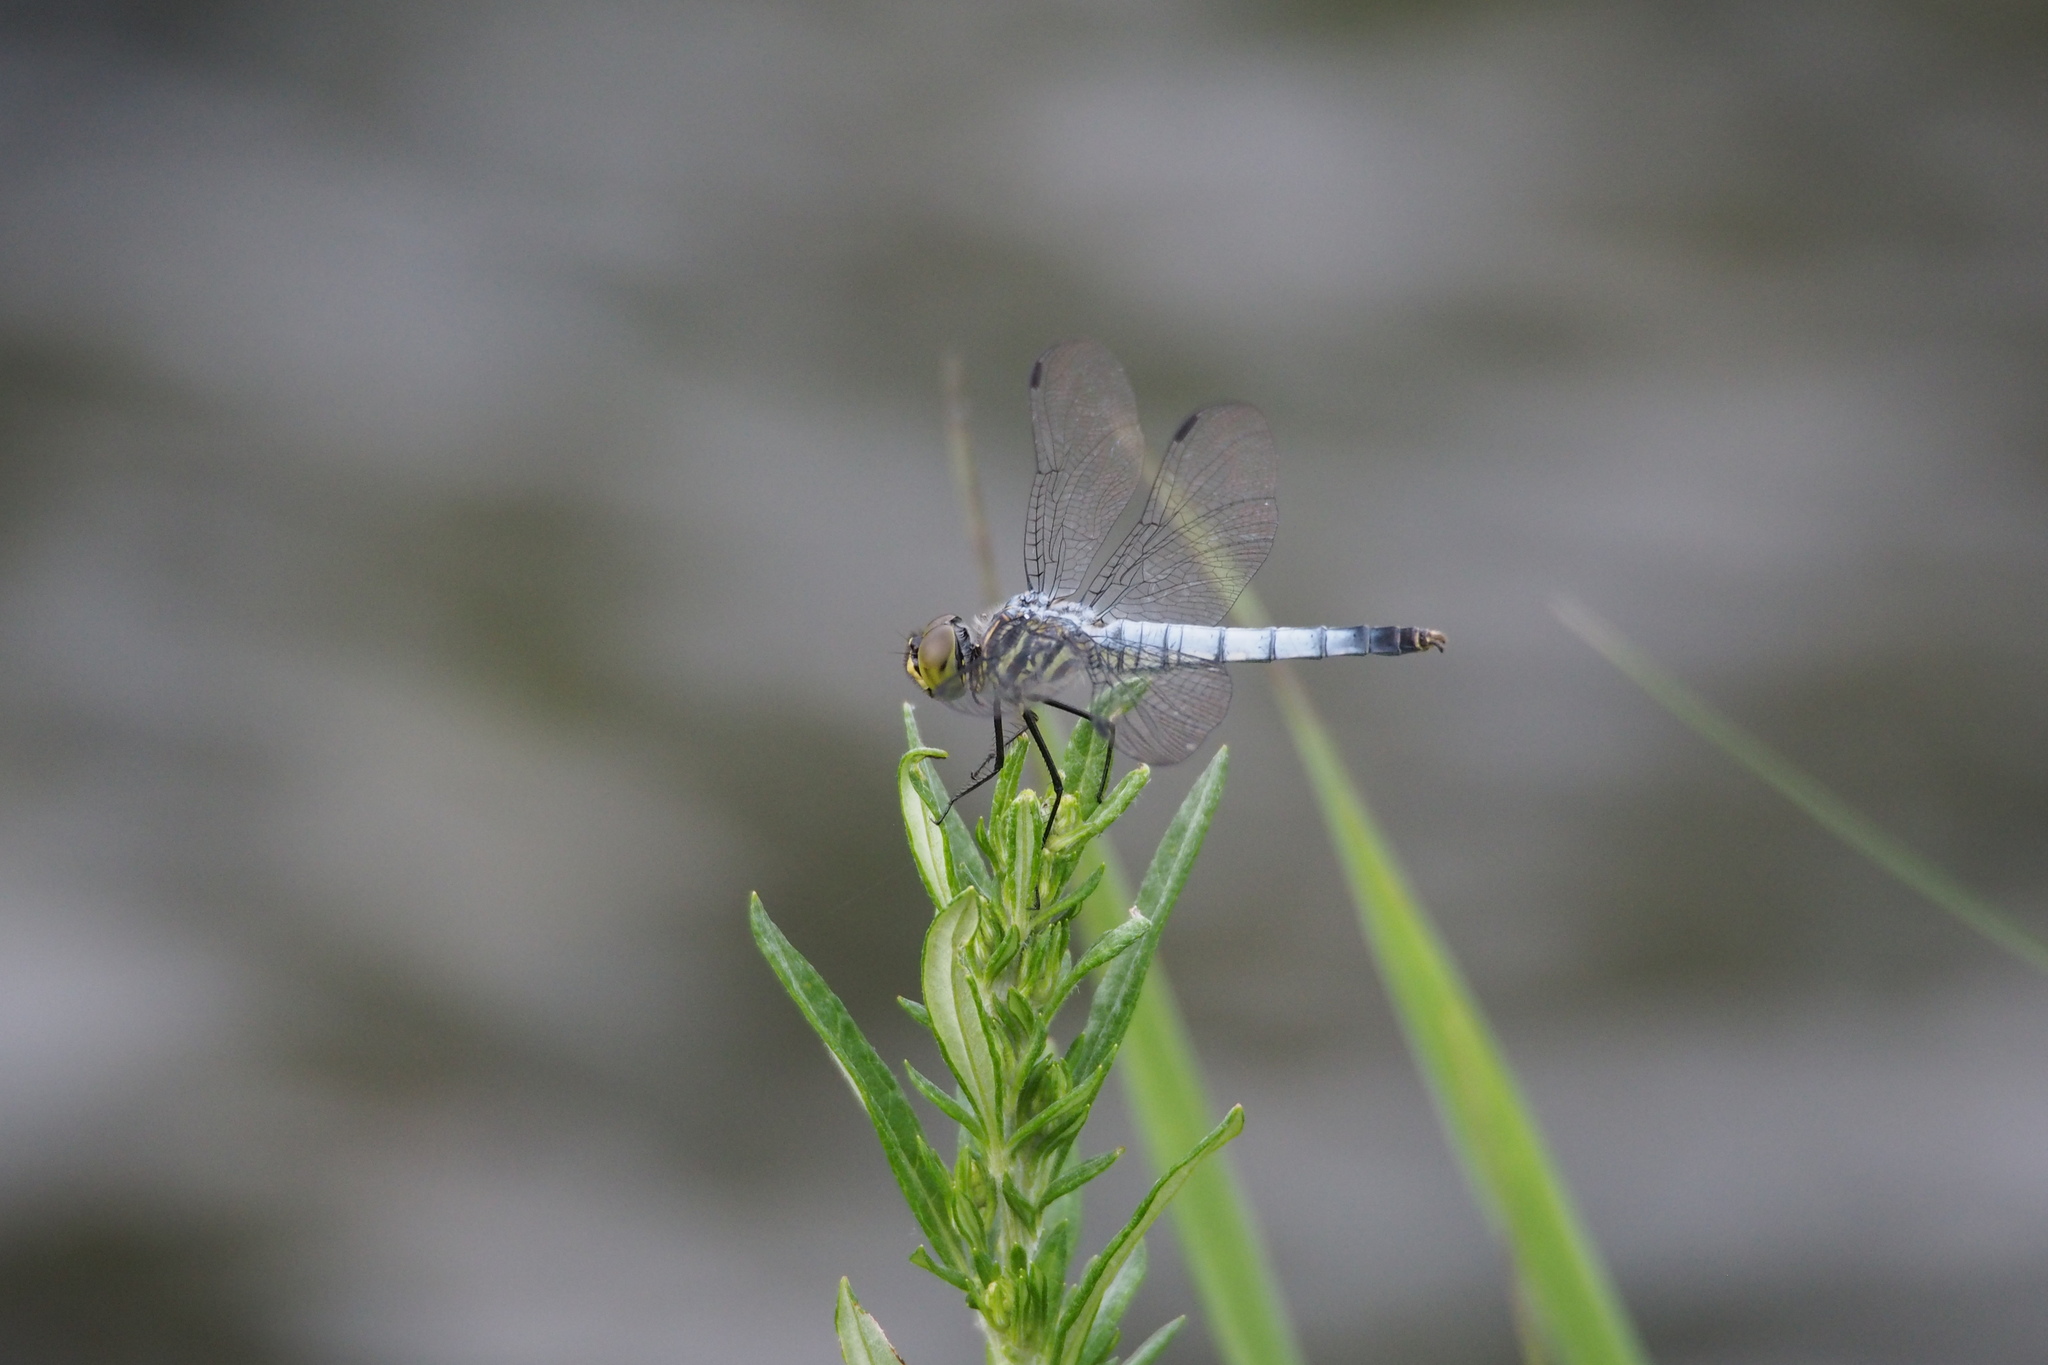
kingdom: Animalia
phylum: Arthropoda
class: Insecta
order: Odonata
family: Libellulidae
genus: Deielia
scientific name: Deielia phaon
